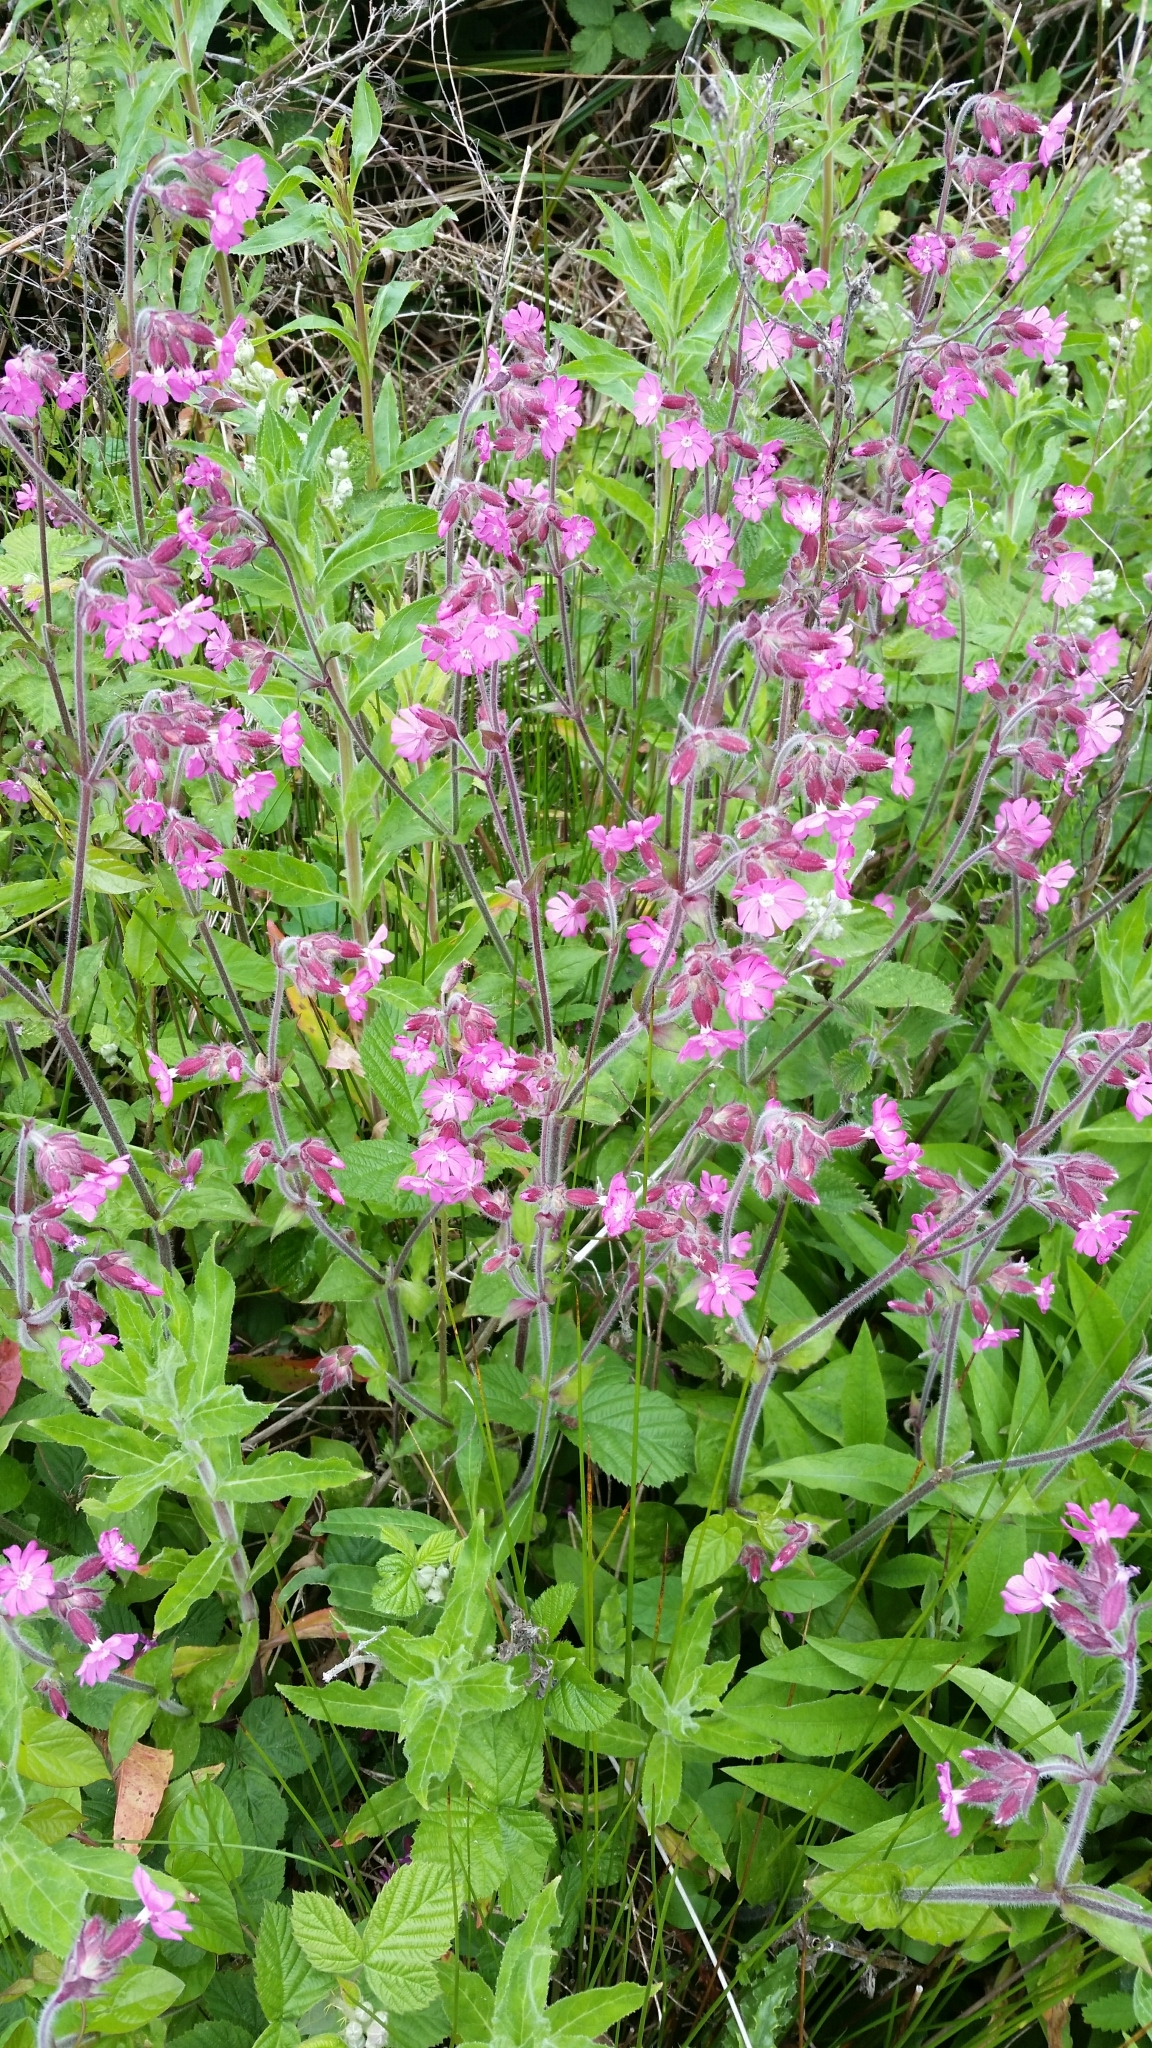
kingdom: Plantae
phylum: Tracheophyta
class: Magnoliopsida
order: Caryophyllales
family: Caryophyllaceae
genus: Silene
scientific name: Silene dioica
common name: Red campion
